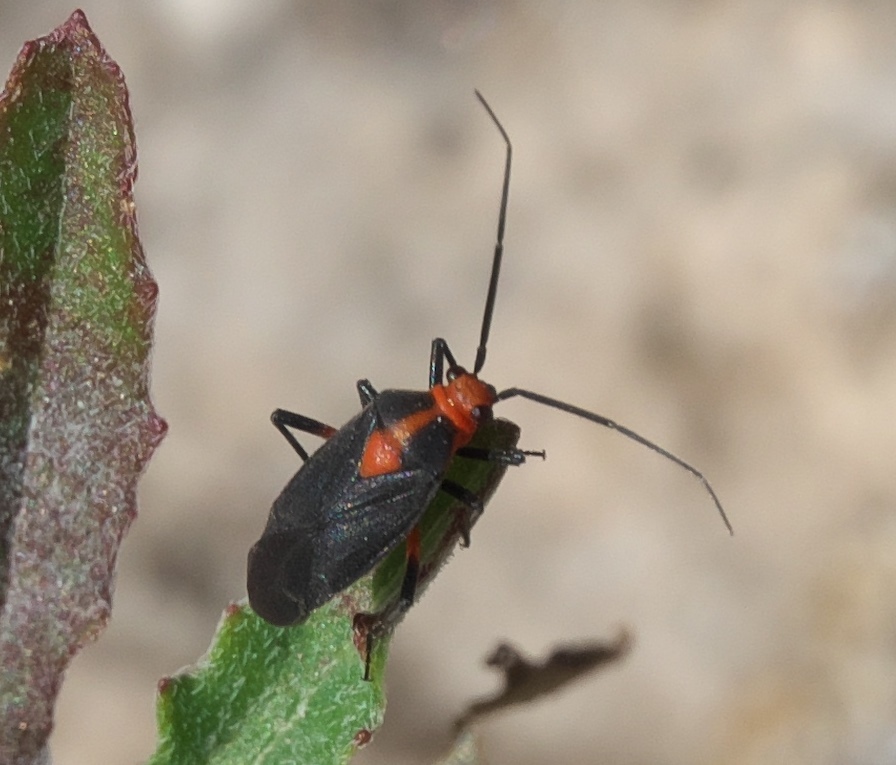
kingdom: Animalia
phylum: Arthropoda
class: Insecta
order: Hemiptera
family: Miridae
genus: Prepops
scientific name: Prepops rubrovittatus
